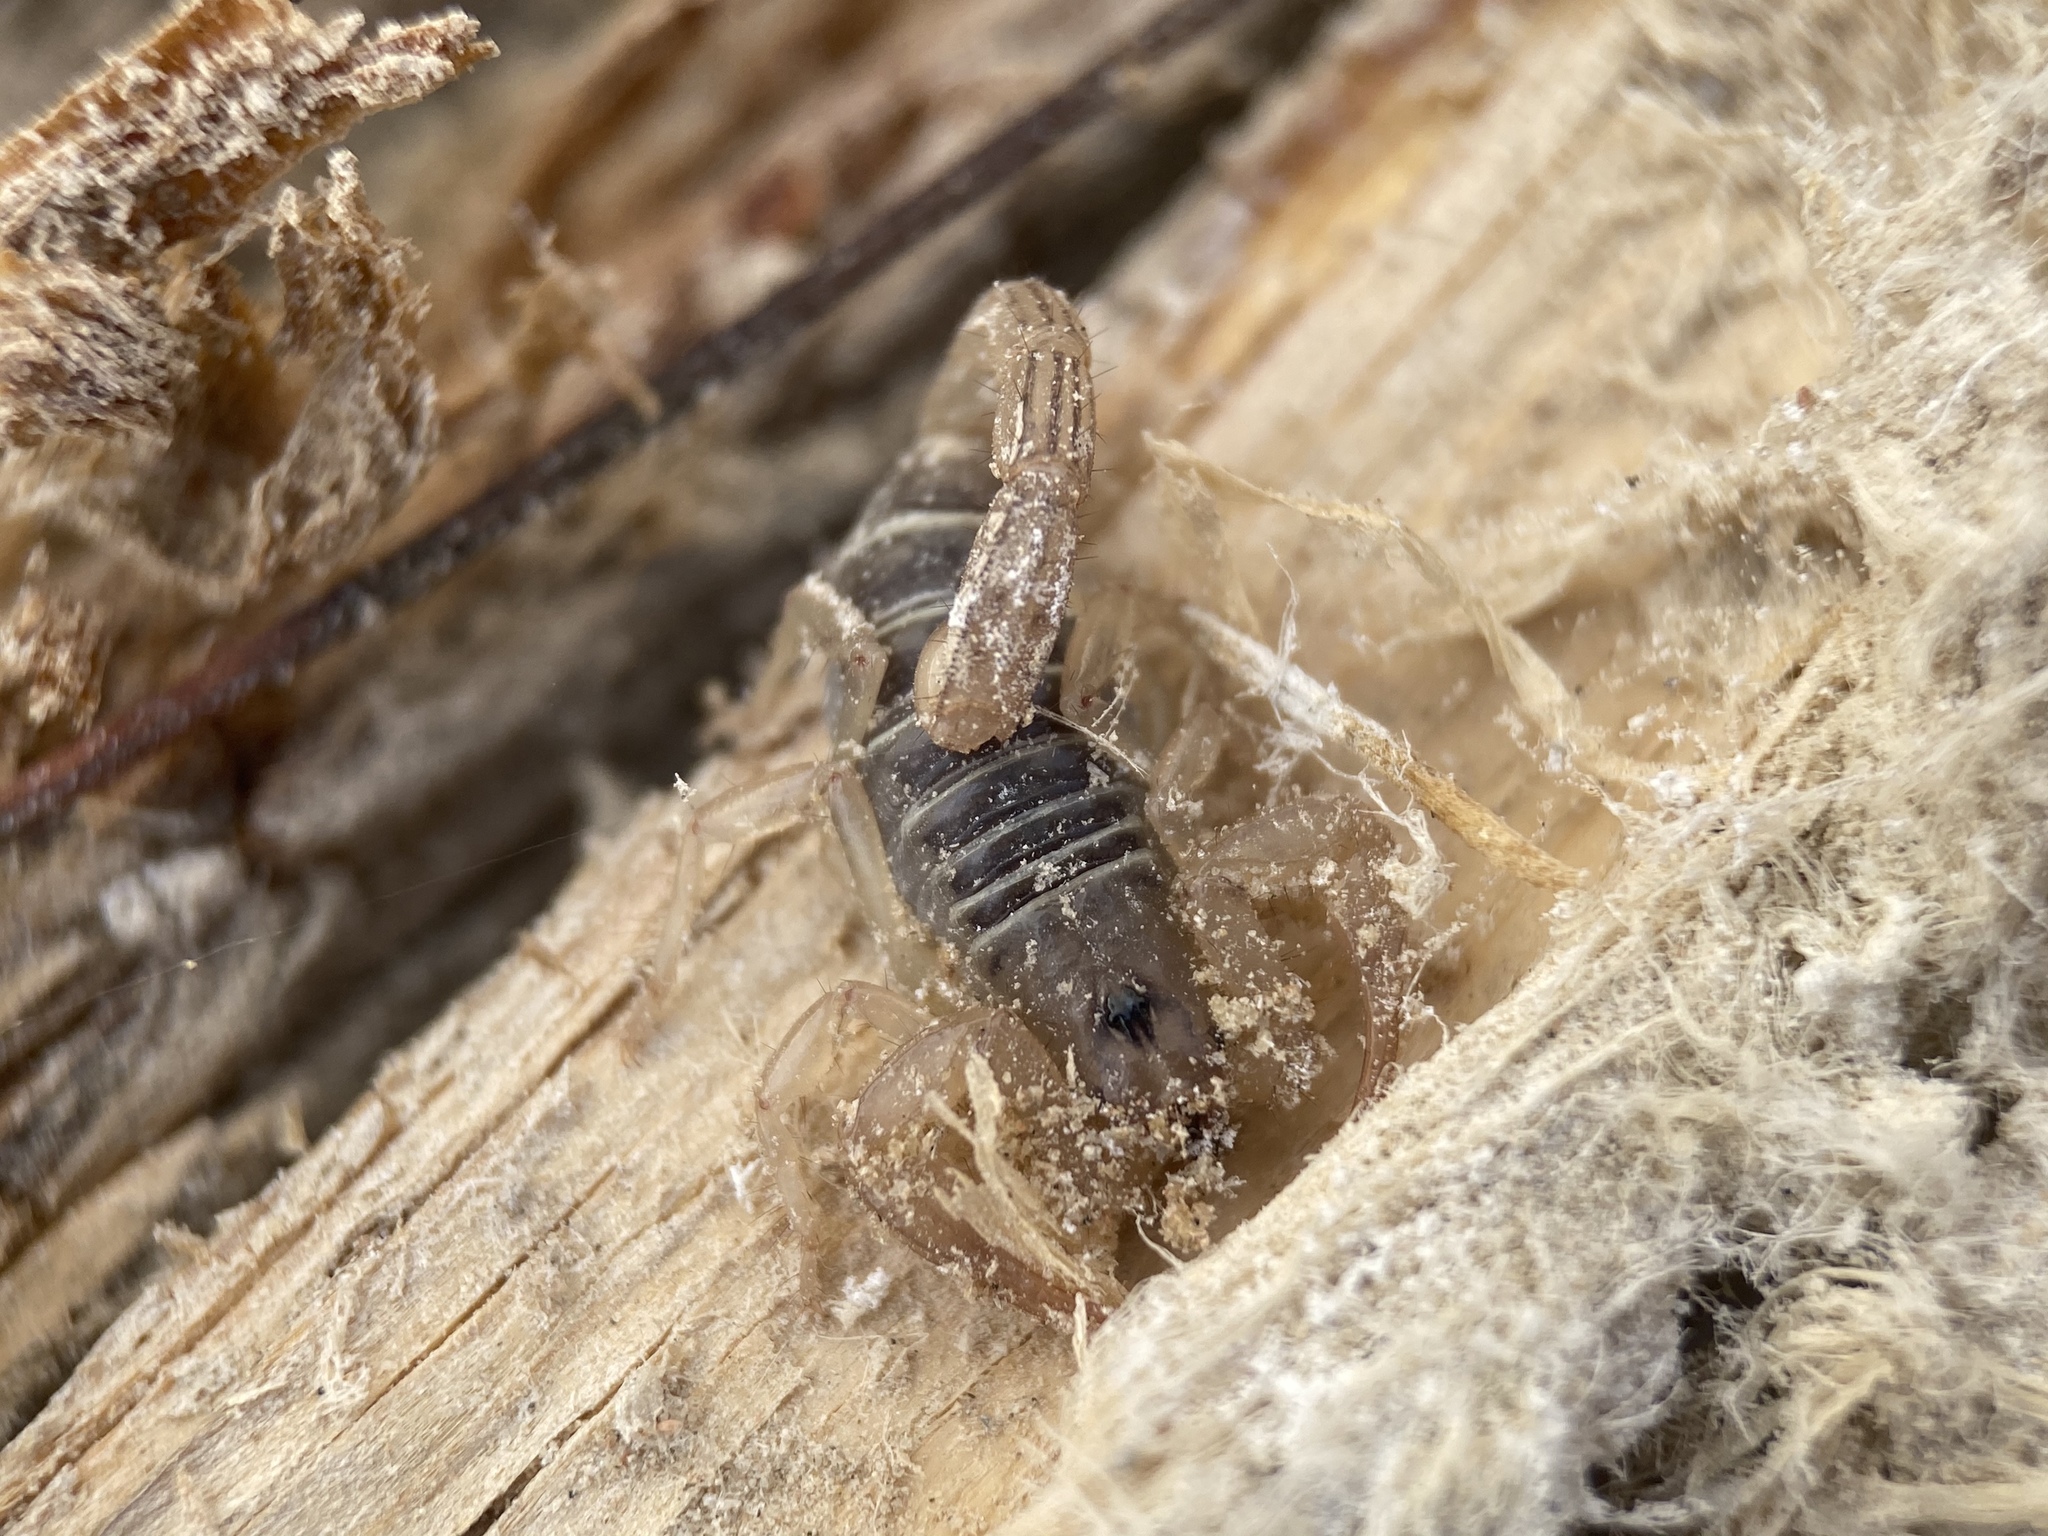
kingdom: Animalia
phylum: Arthropoda
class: Arachnida
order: Scorpiones
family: Vaejovidae
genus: Paruroctonus
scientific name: Paruroctonus boreus
